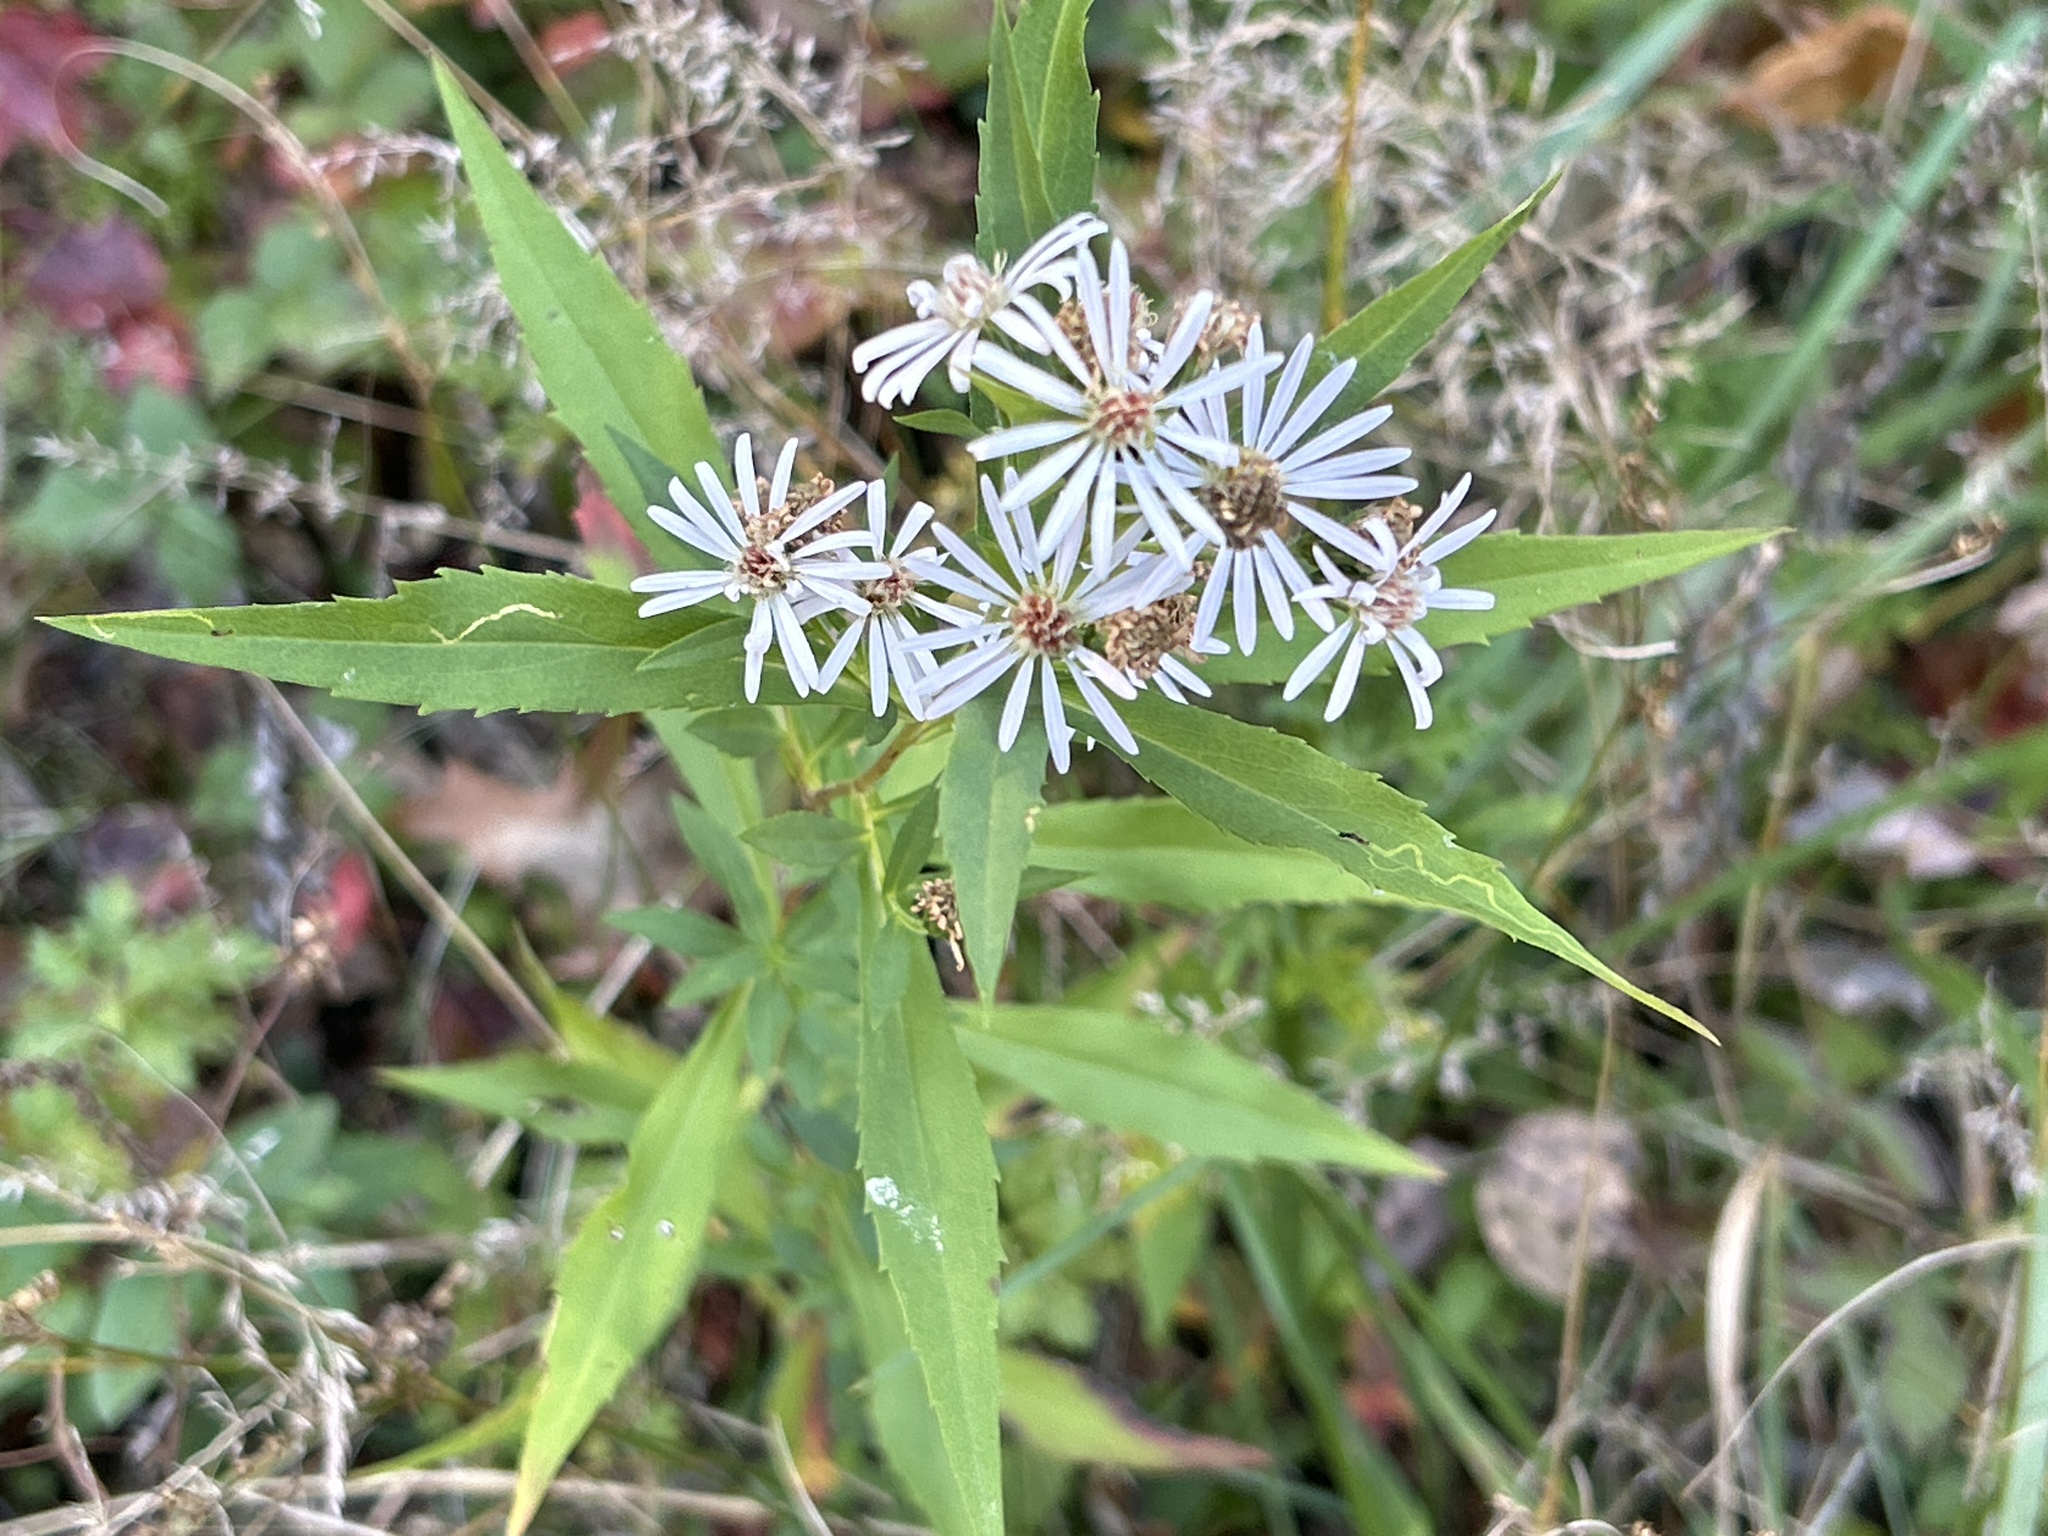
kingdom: Plantae
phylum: Tracheophyta
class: Magnoliopsida
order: Asterales
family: Asteraceae
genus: Symphyotrichum
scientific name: Symphyotrichum lanceolatum
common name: Panicled aster
